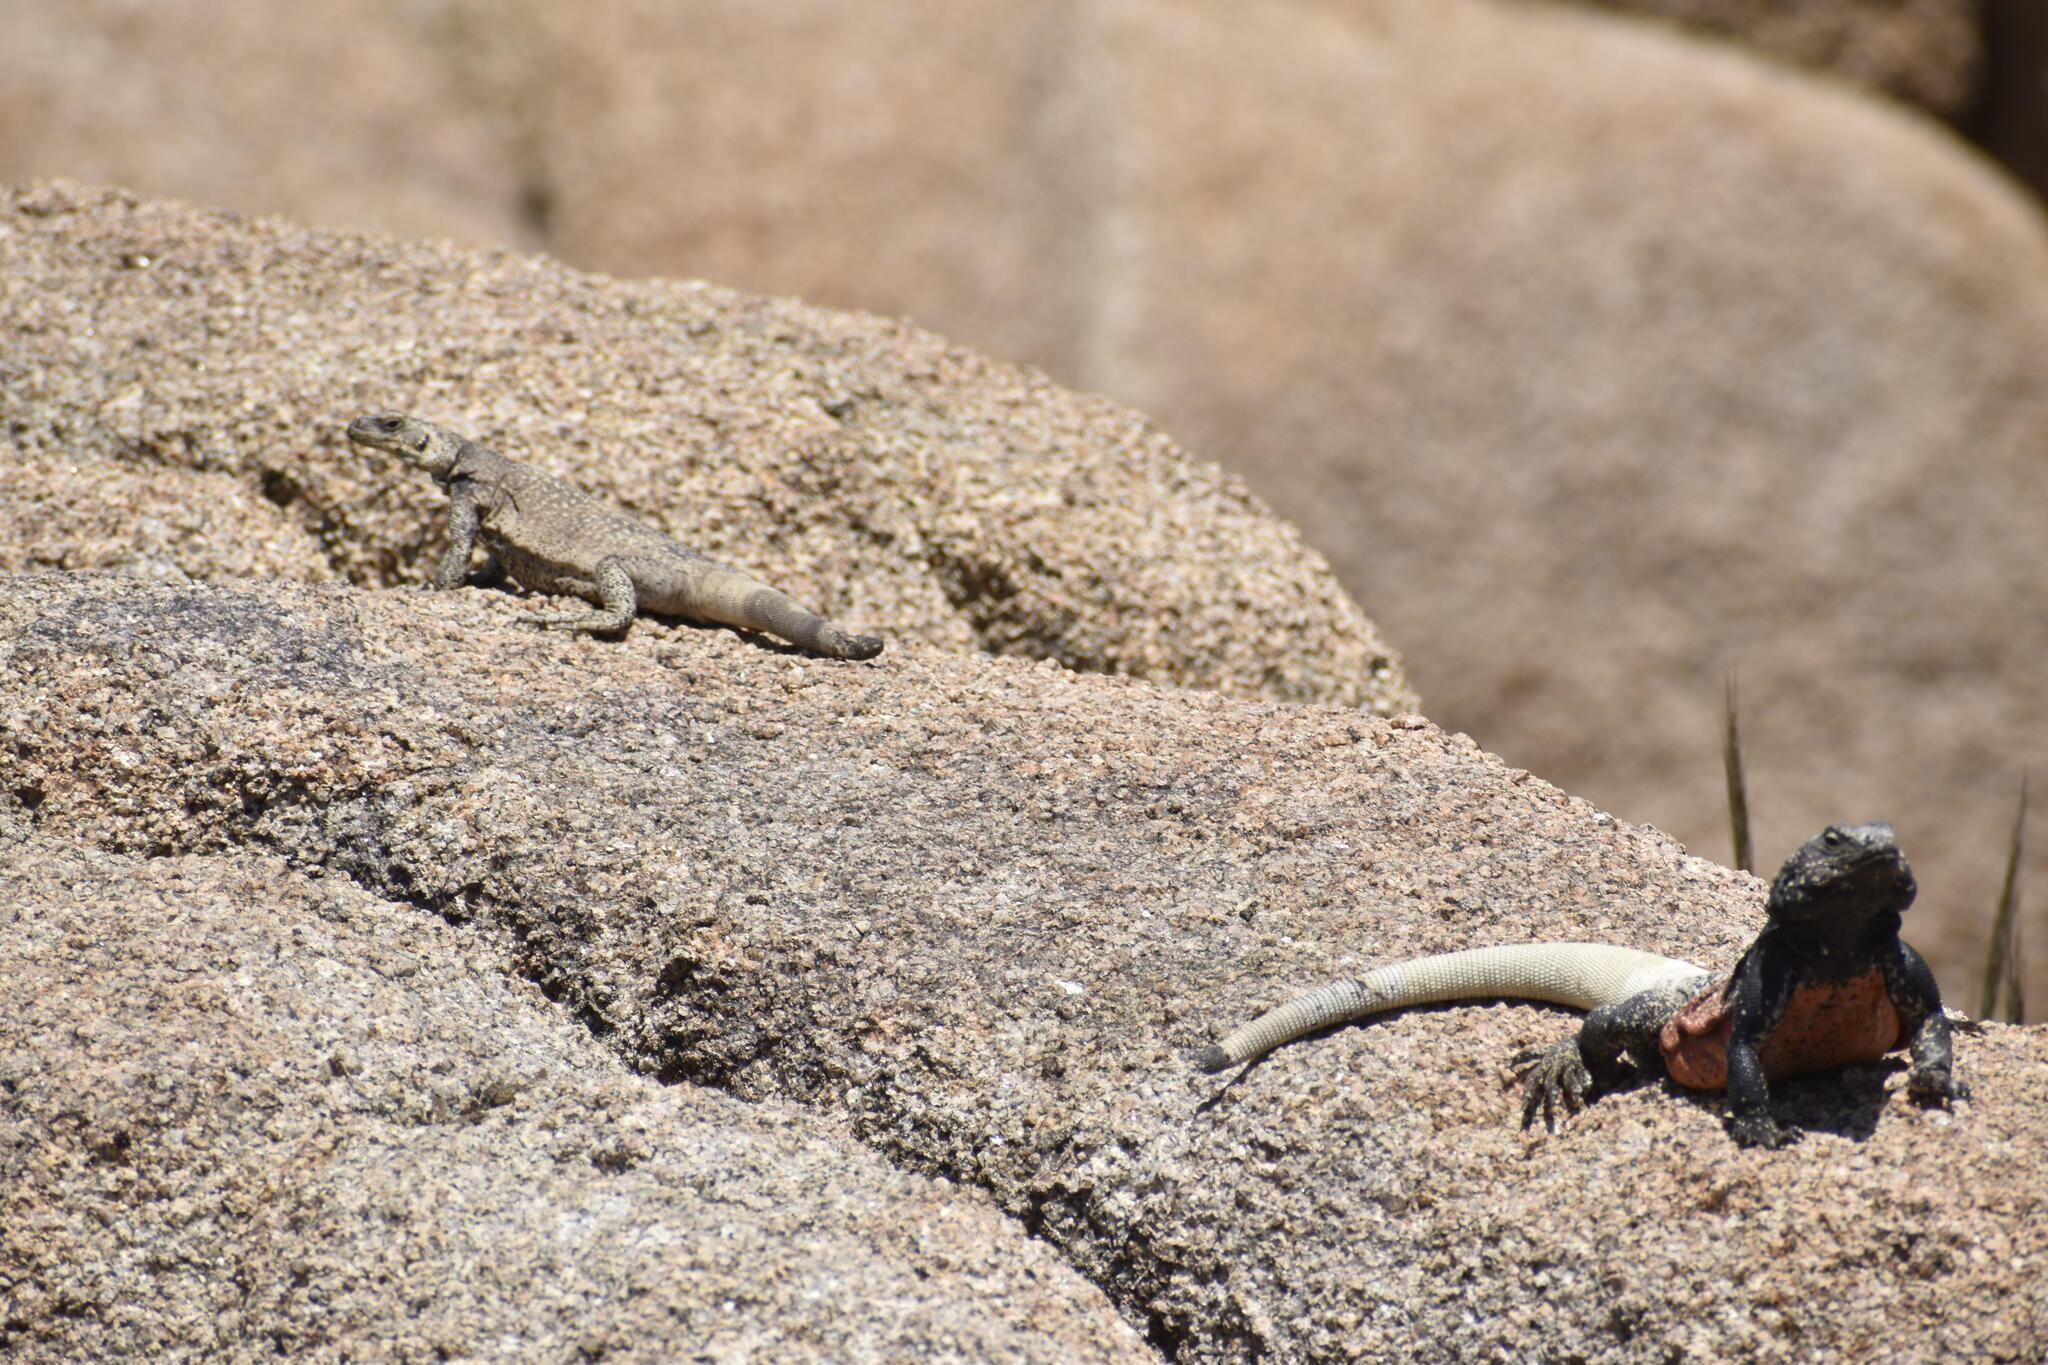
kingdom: Animalia
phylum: Chordata
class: Squamata
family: Iguanidae
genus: Sauromalus
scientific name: Sauromalus ater
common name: Northern chuckwalla
